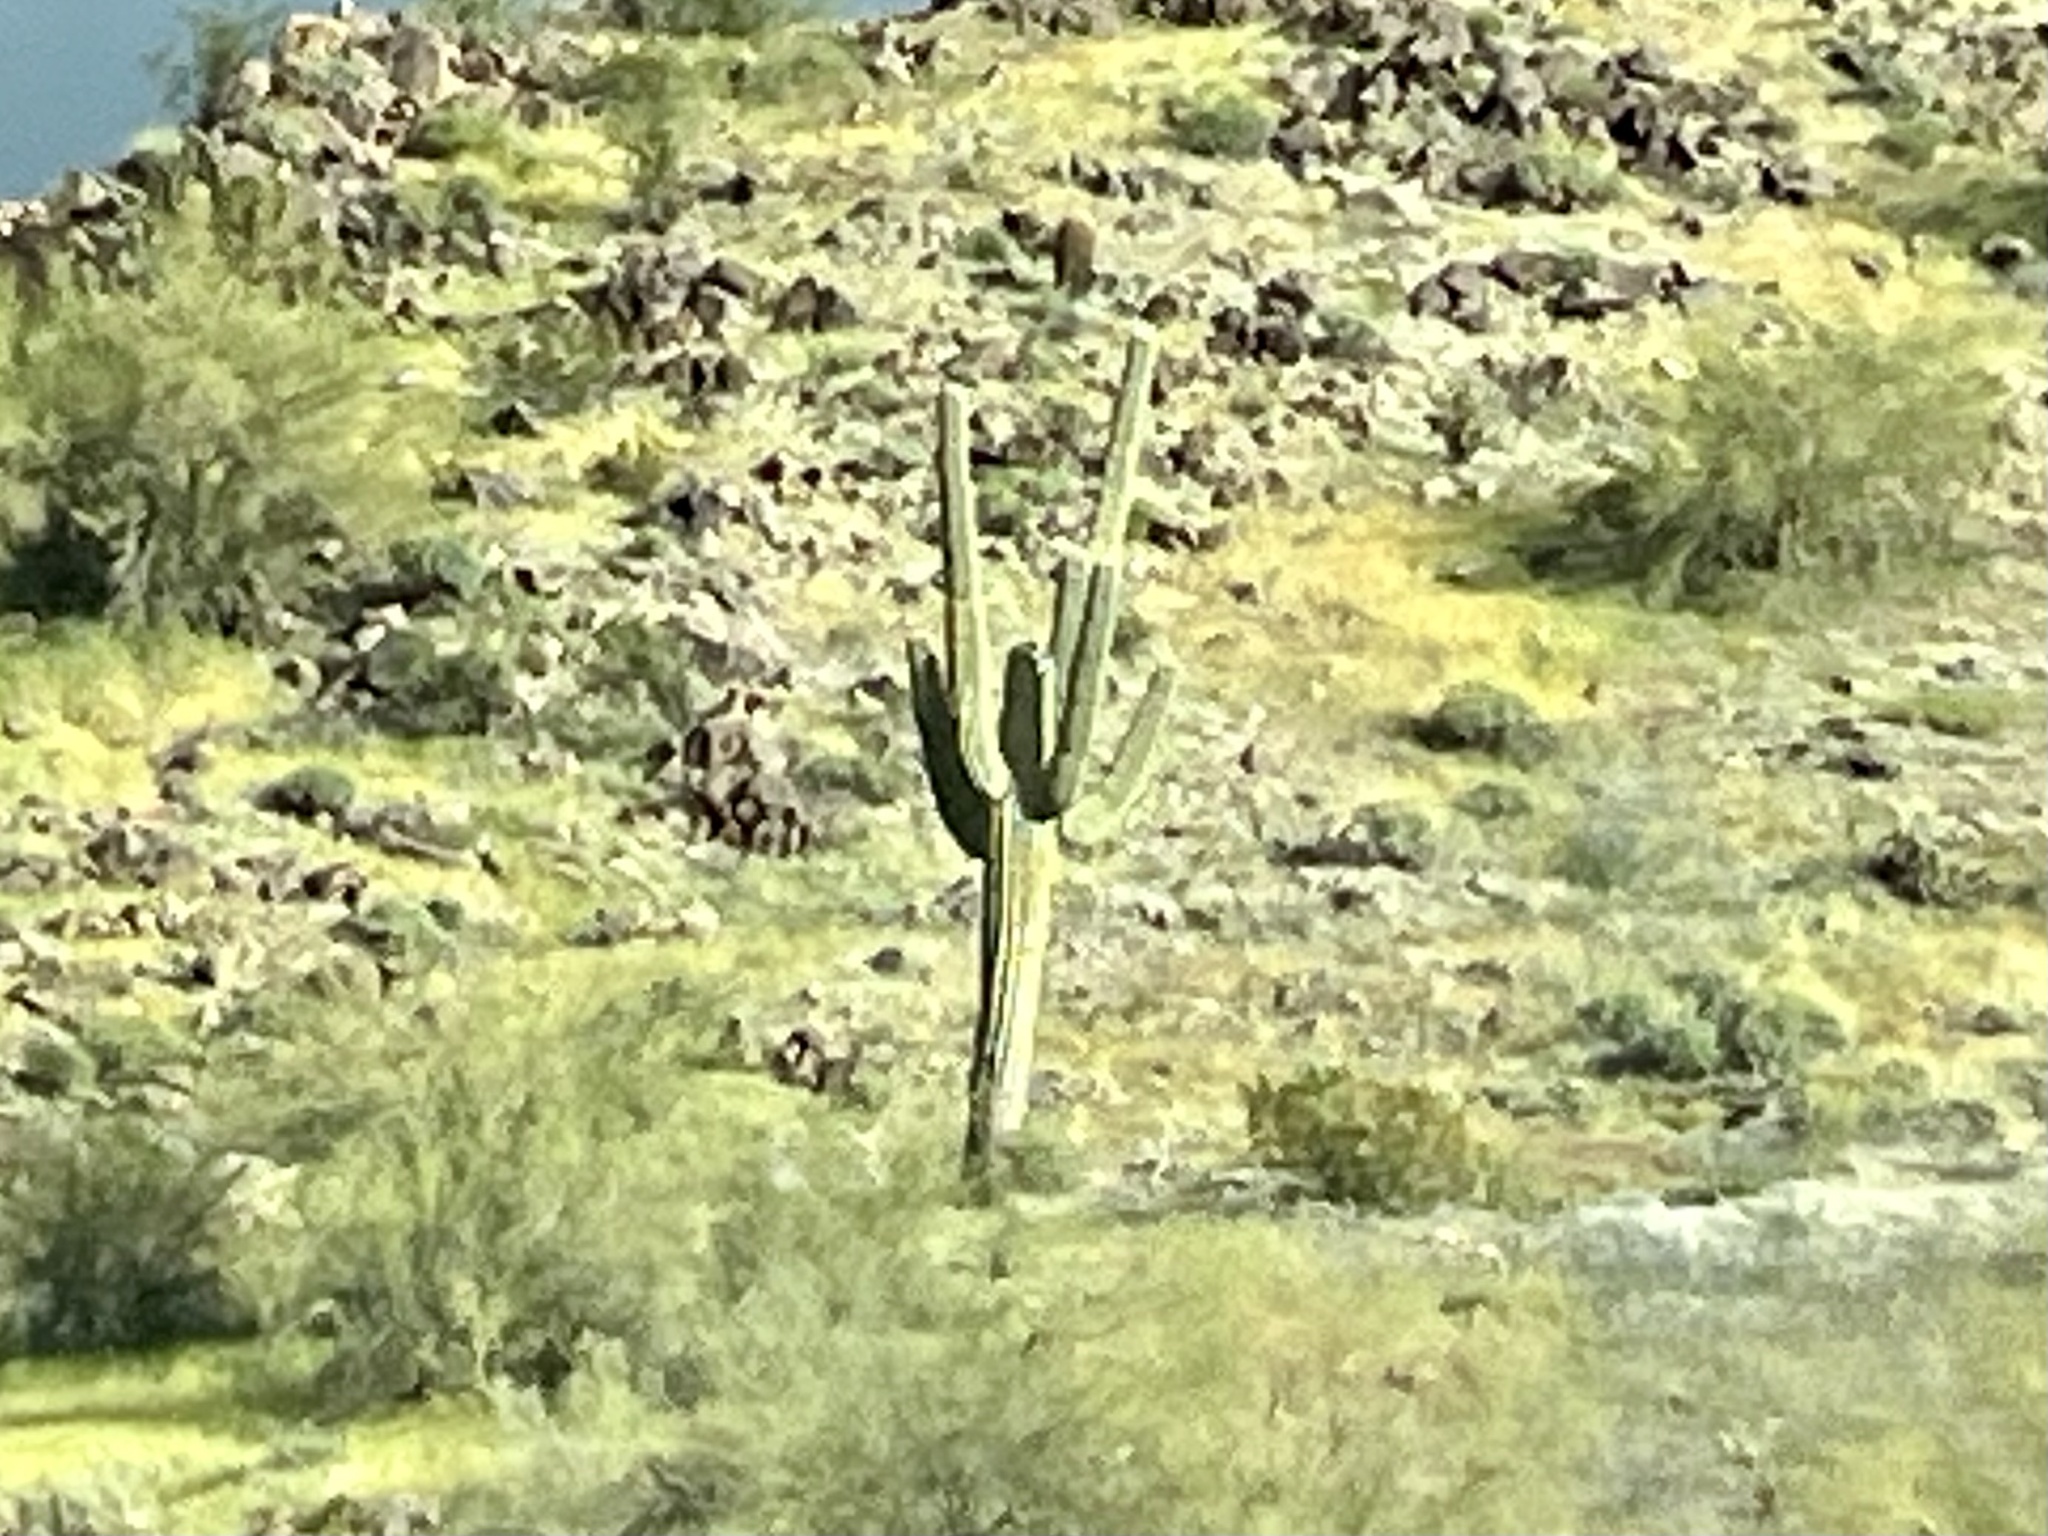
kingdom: Plantae
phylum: Tracheophyta
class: Magnoliopsida
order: Caryophyllales
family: Cactaceae
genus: Carnegiea
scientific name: Carnegiea gigantea
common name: Saguaro
